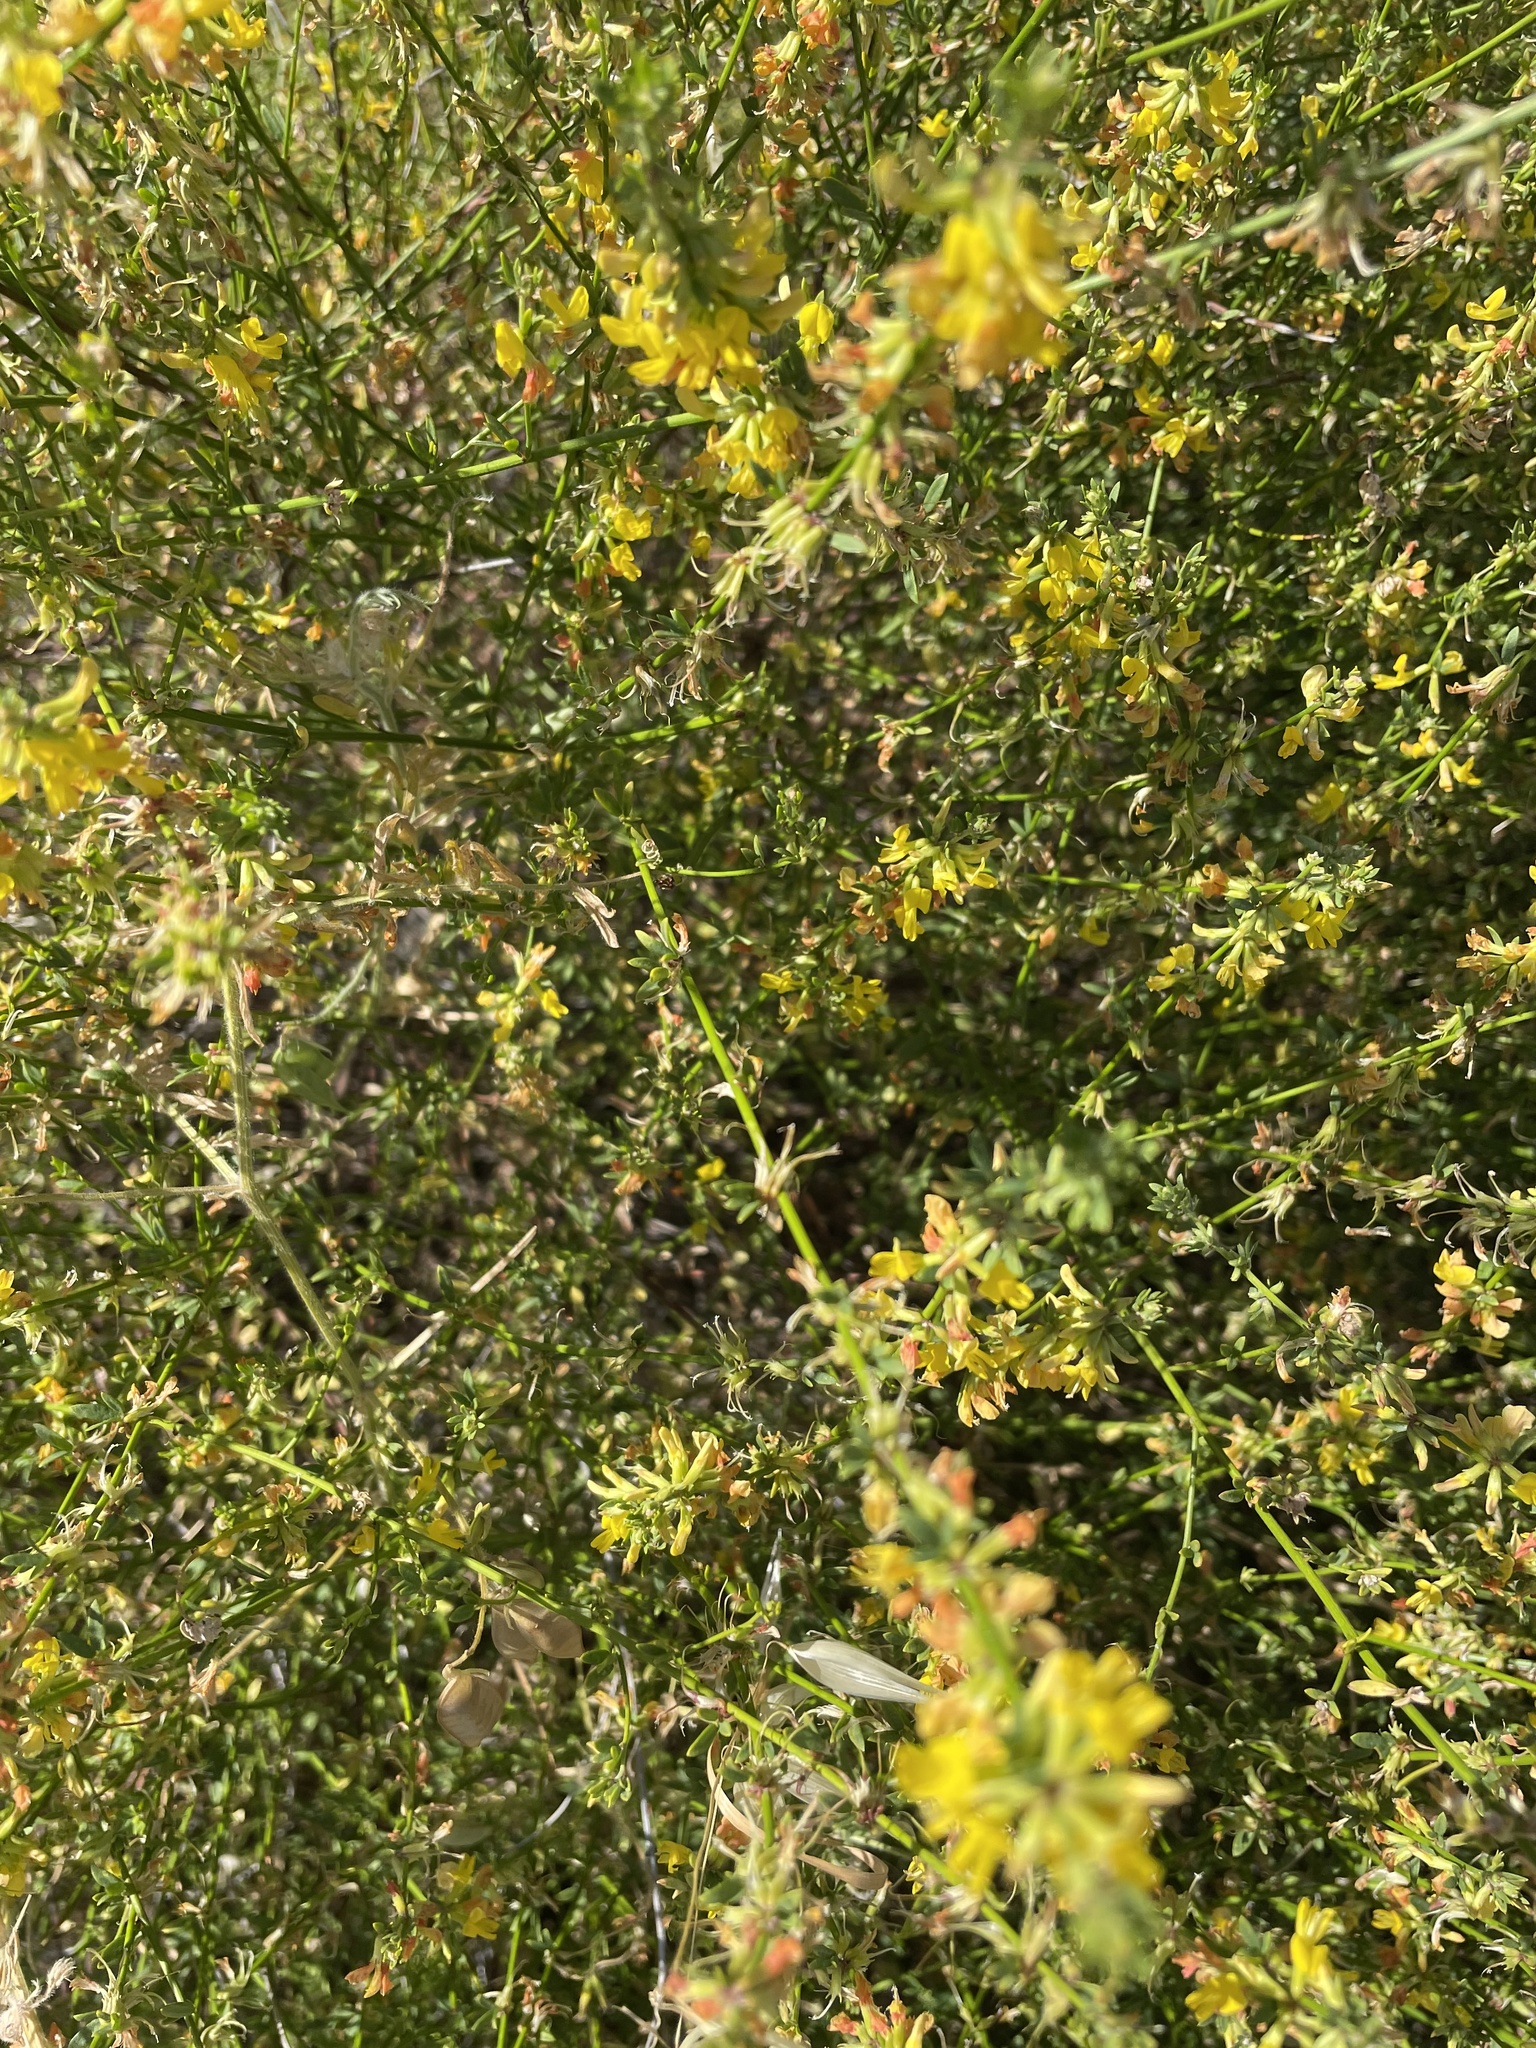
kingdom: Plantae
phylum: Tracheophyta
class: Magnoliopsida
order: Fabales
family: Fabaceae
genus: Acmispon
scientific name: Acmispon glaber
